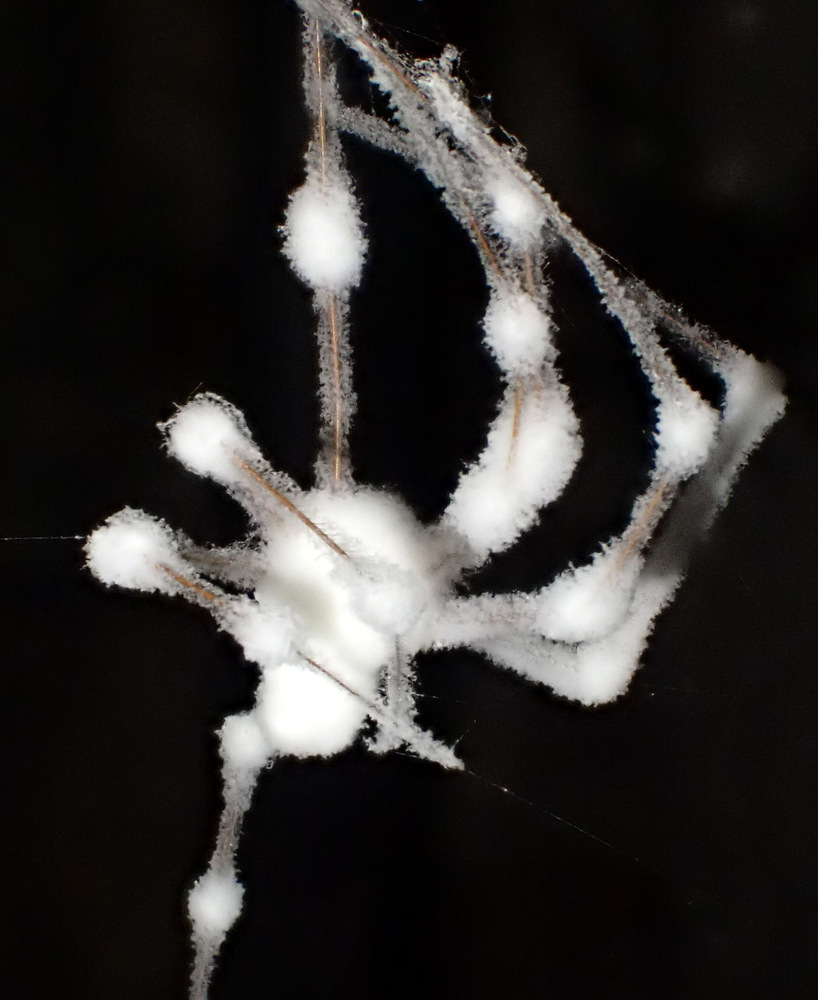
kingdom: Fungi
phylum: Ascomycota
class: Sordariomycetes
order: Hypocreales
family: Cordycipitaceae
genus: Lecanicillium
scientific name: Lecanicillium tenuipes
